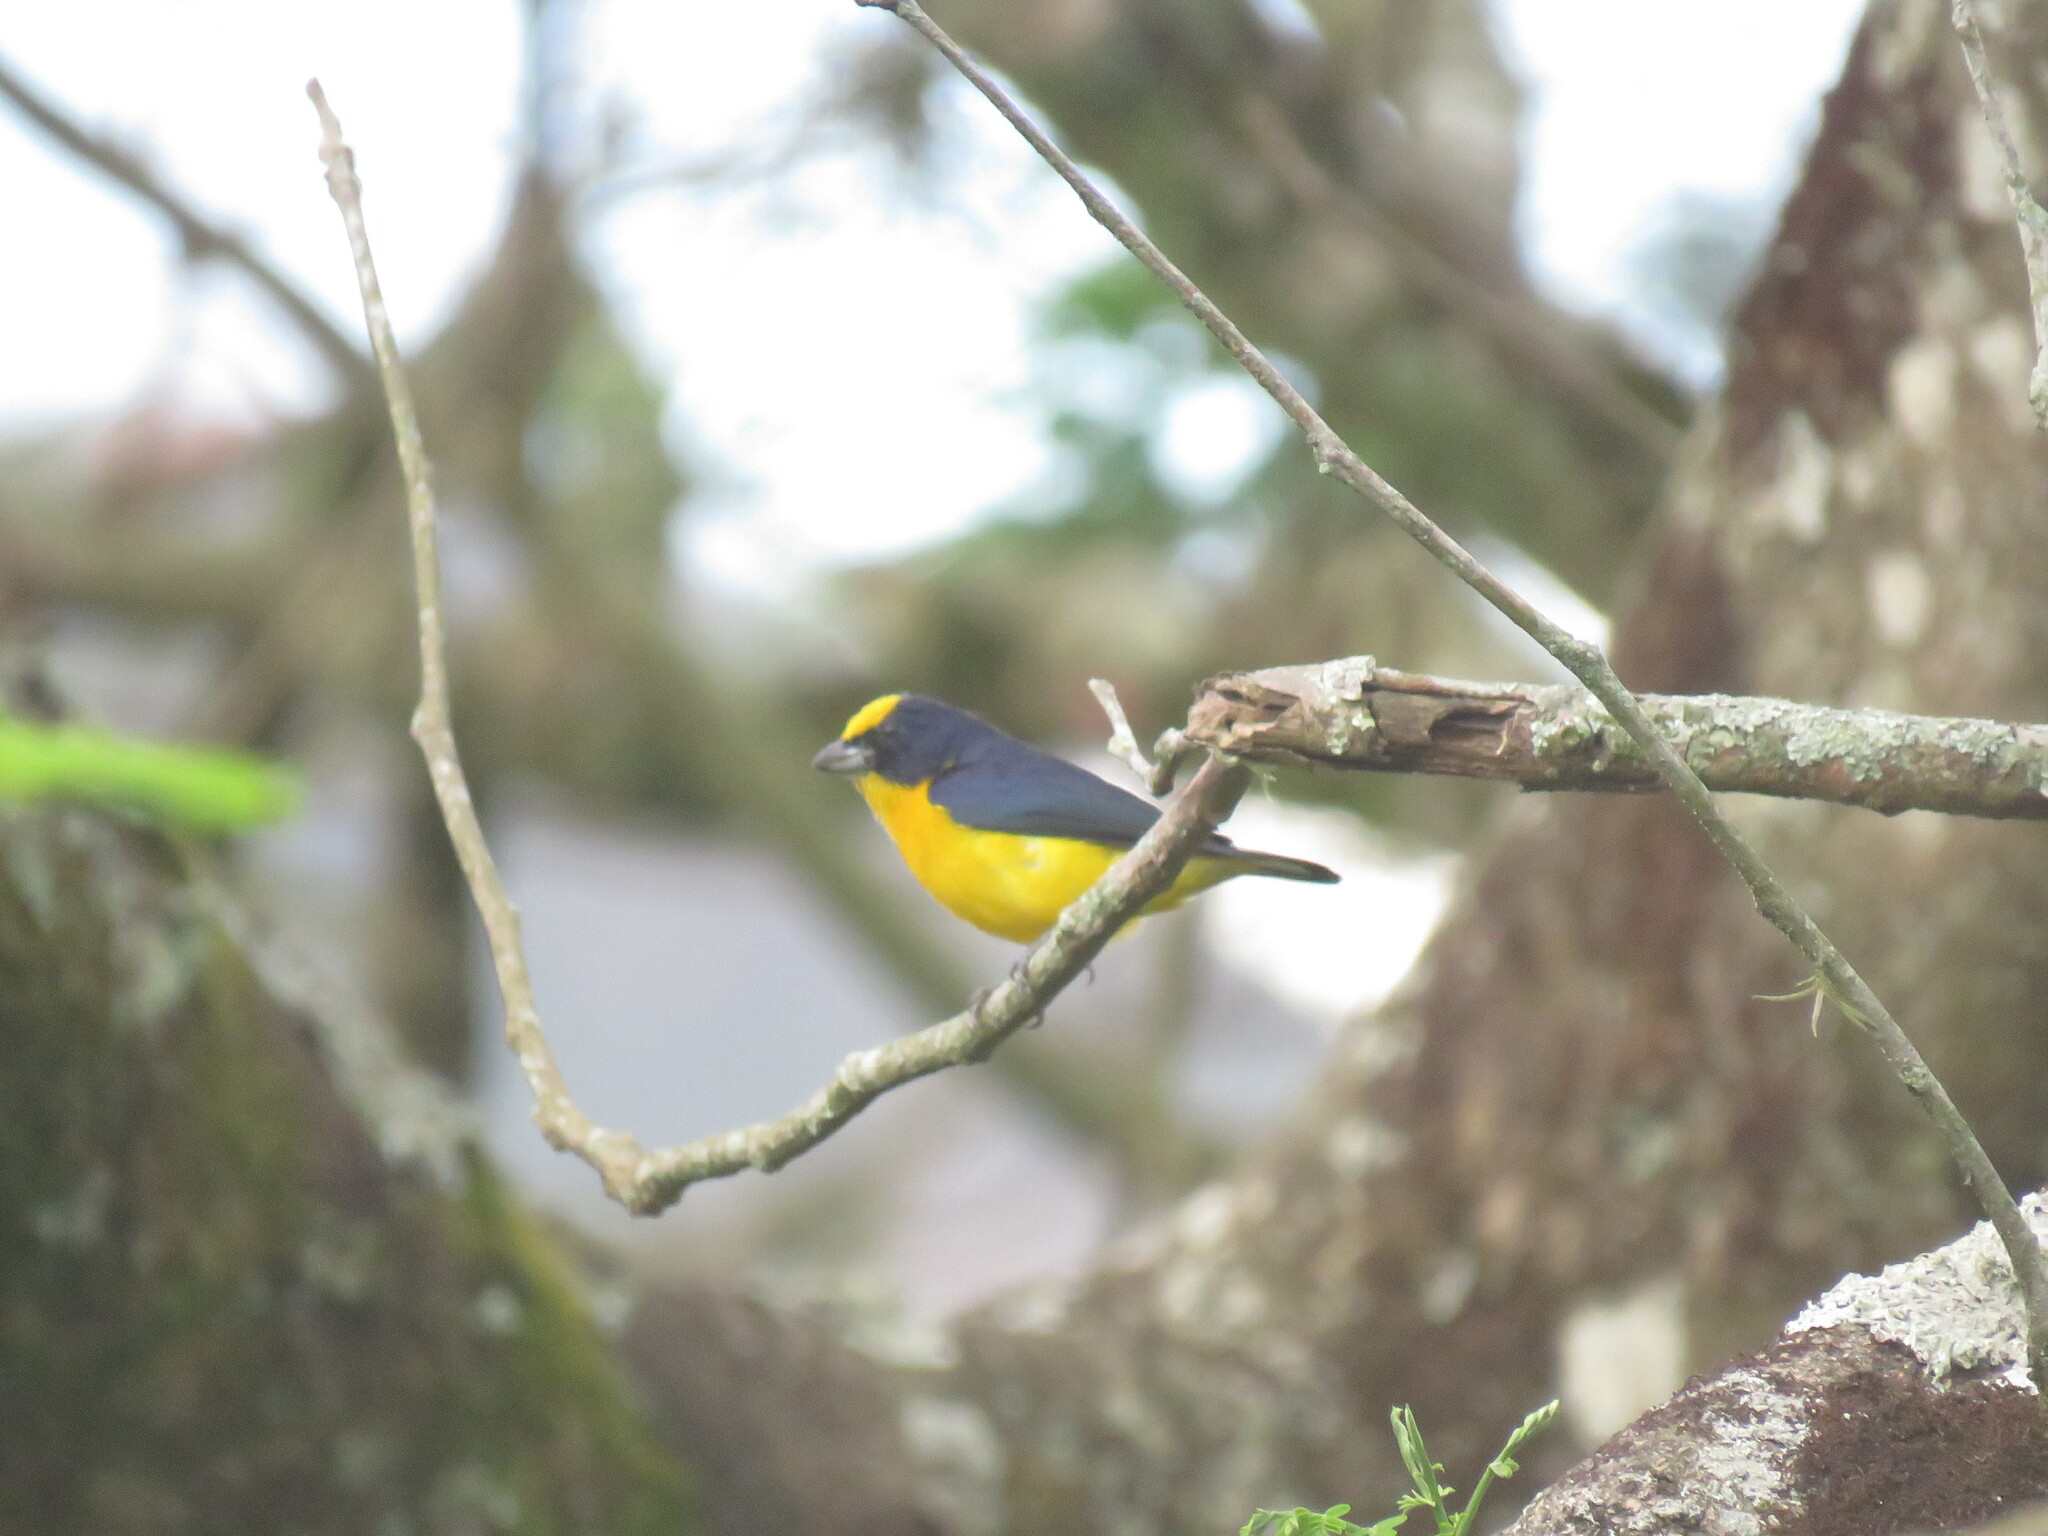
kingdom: Animalia
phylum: Chordata
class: Aves
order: Passeriformes
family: Fringillidae
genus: Euphonia
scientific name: Euphonia laniirostris
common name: Thick-billed euphonia
